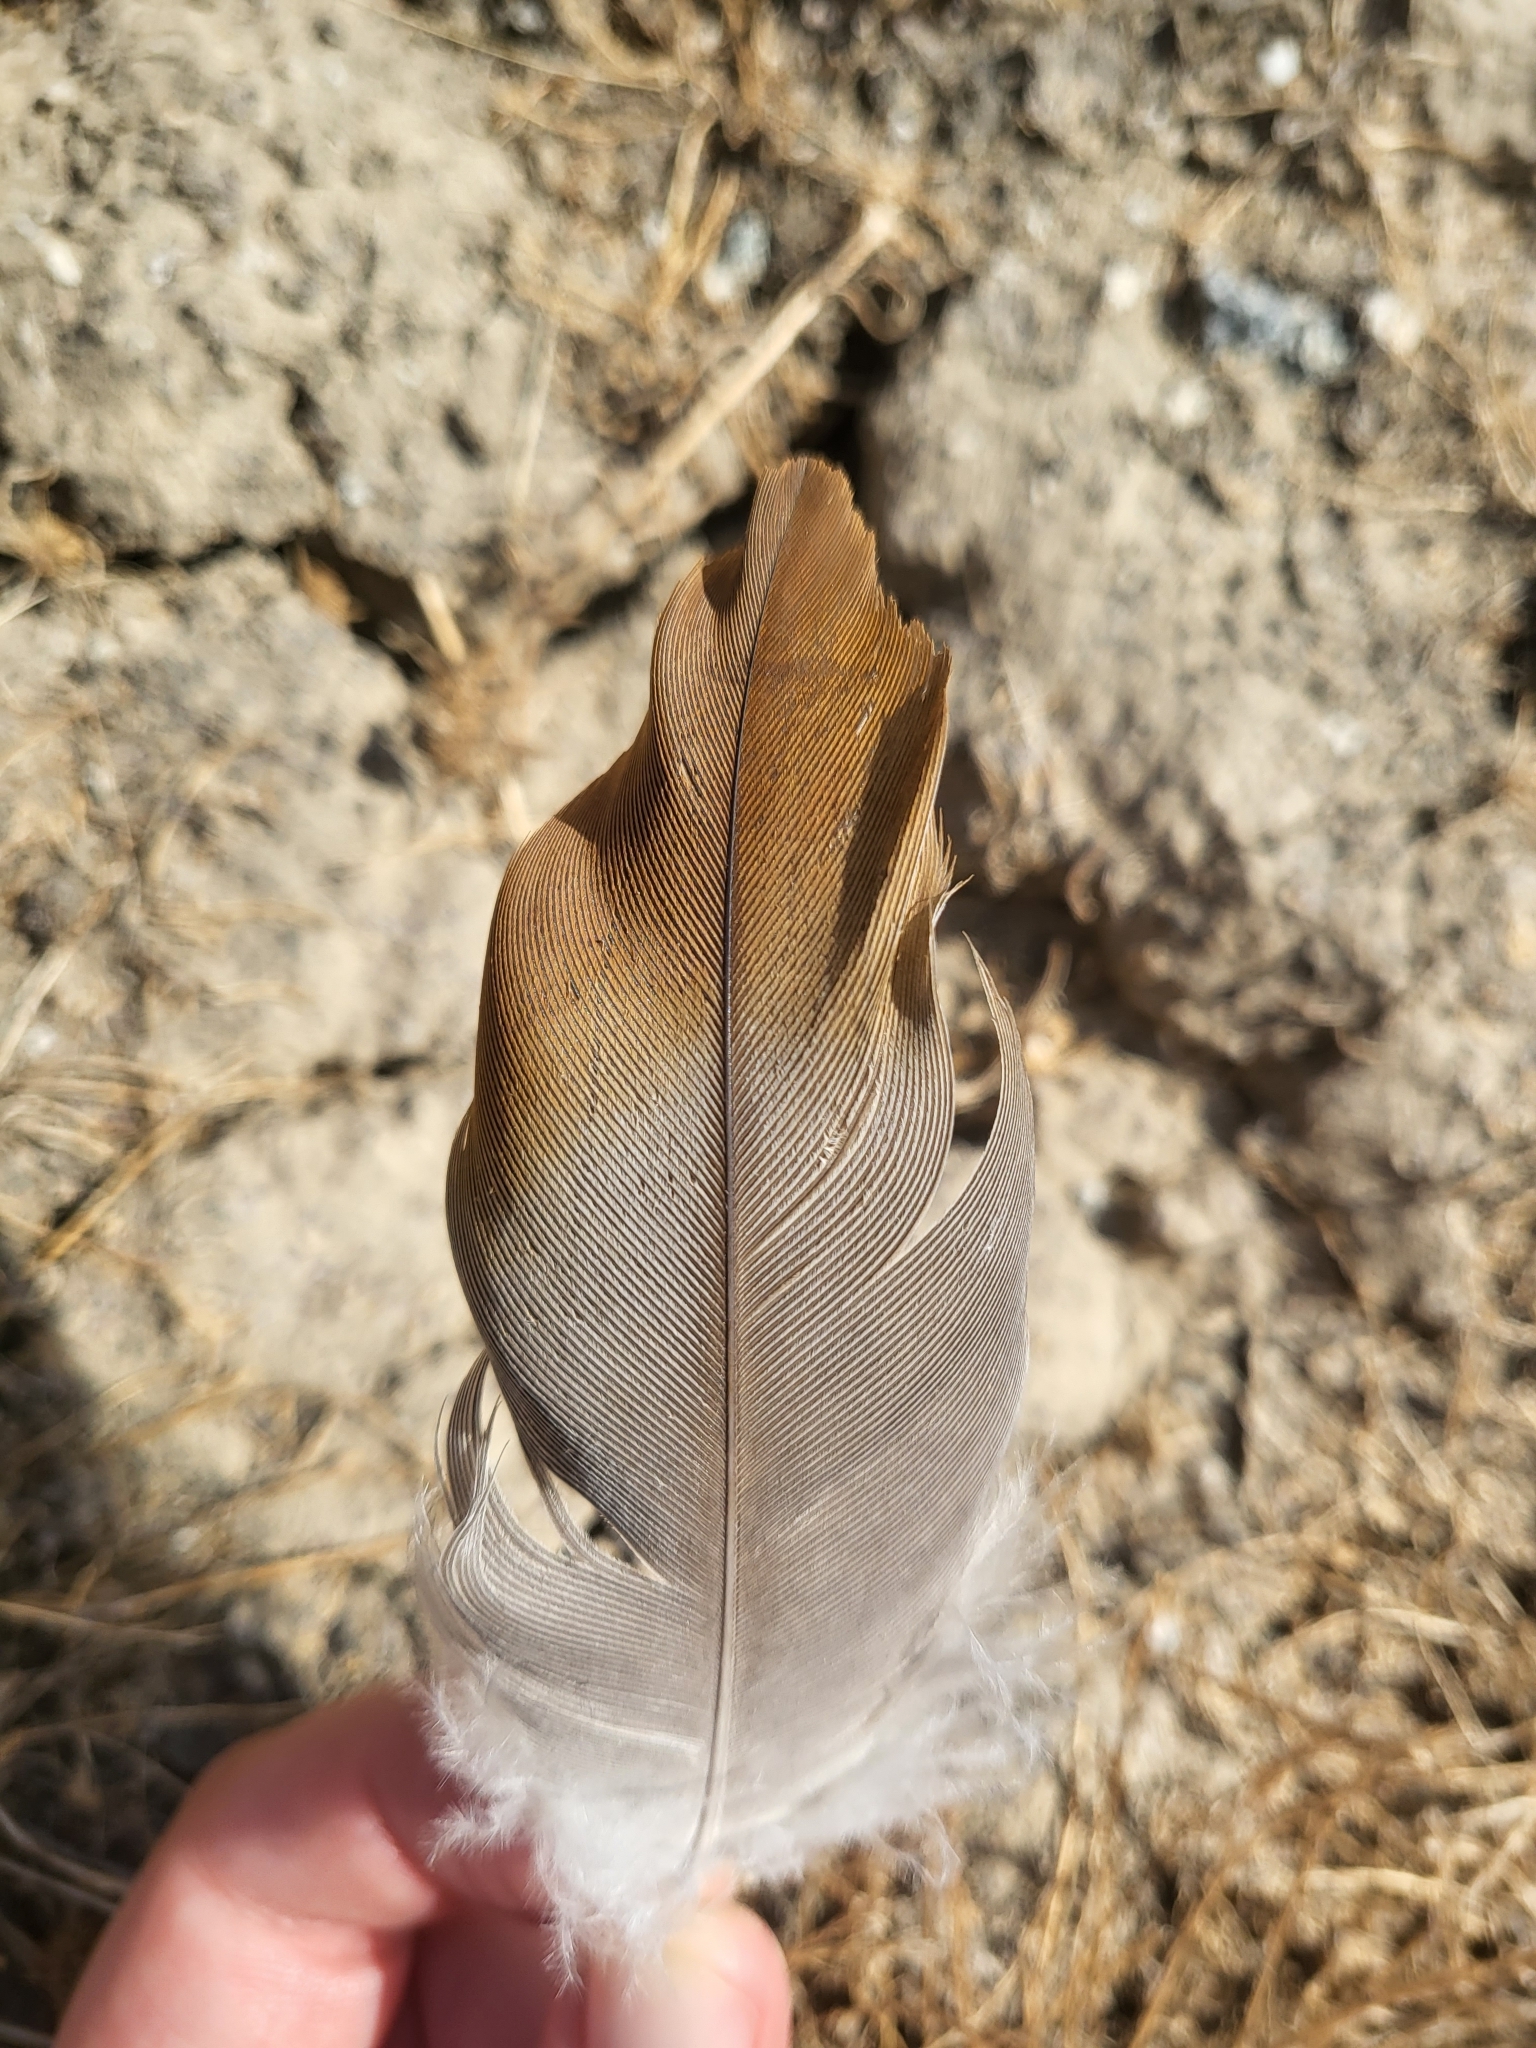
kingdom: Animalia
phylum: Chordata
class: Aves
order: Gruiformes
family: Gruidae
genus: Grus
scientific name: Grus canadensis
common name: Sandhill crane
